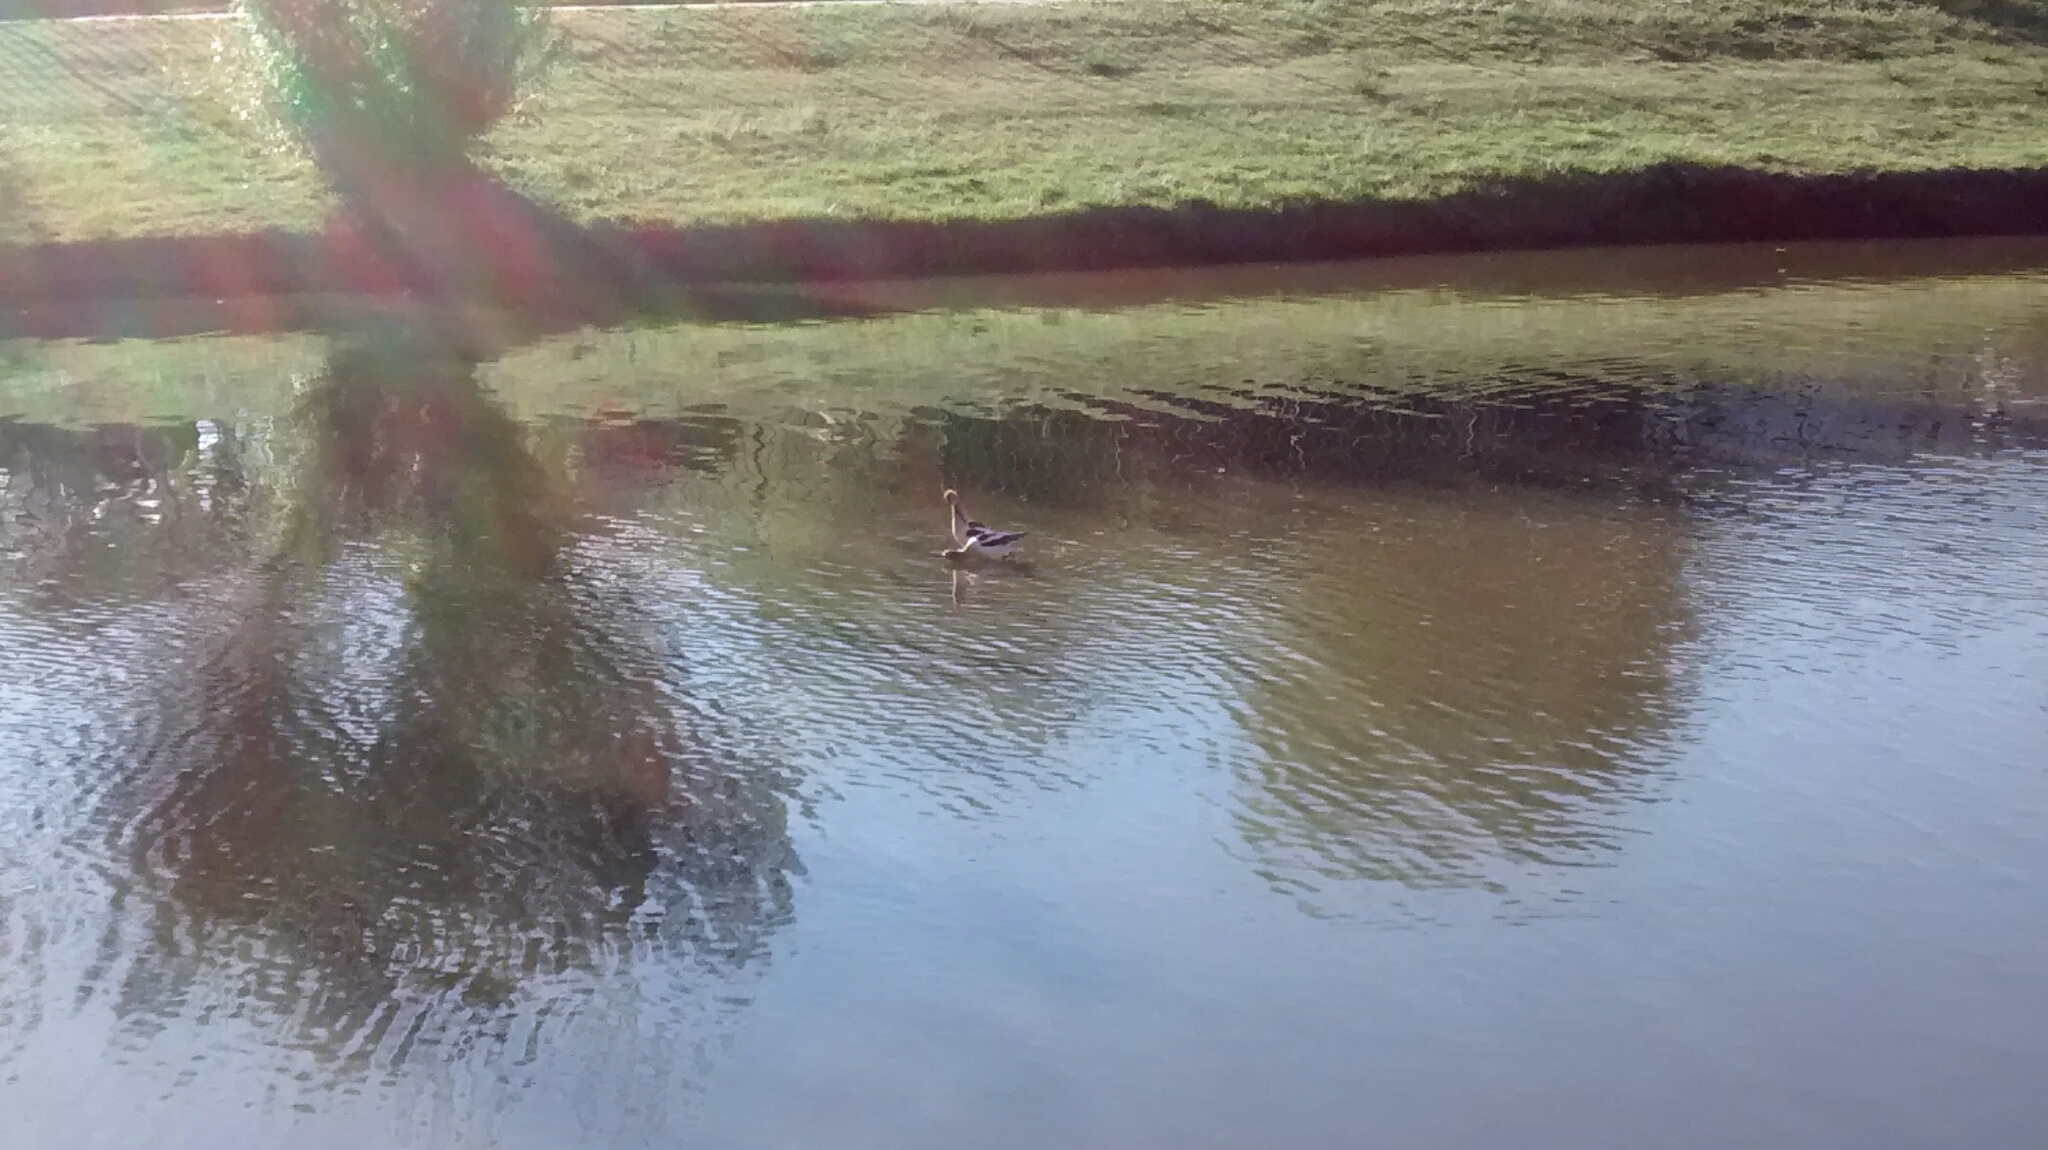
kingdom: Animalia
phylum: Chordata
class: Aves
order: Charadriiformes
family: Recurvirostridae
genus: Recurvirostra
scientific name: Recurvirostra americana
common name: American avocet
